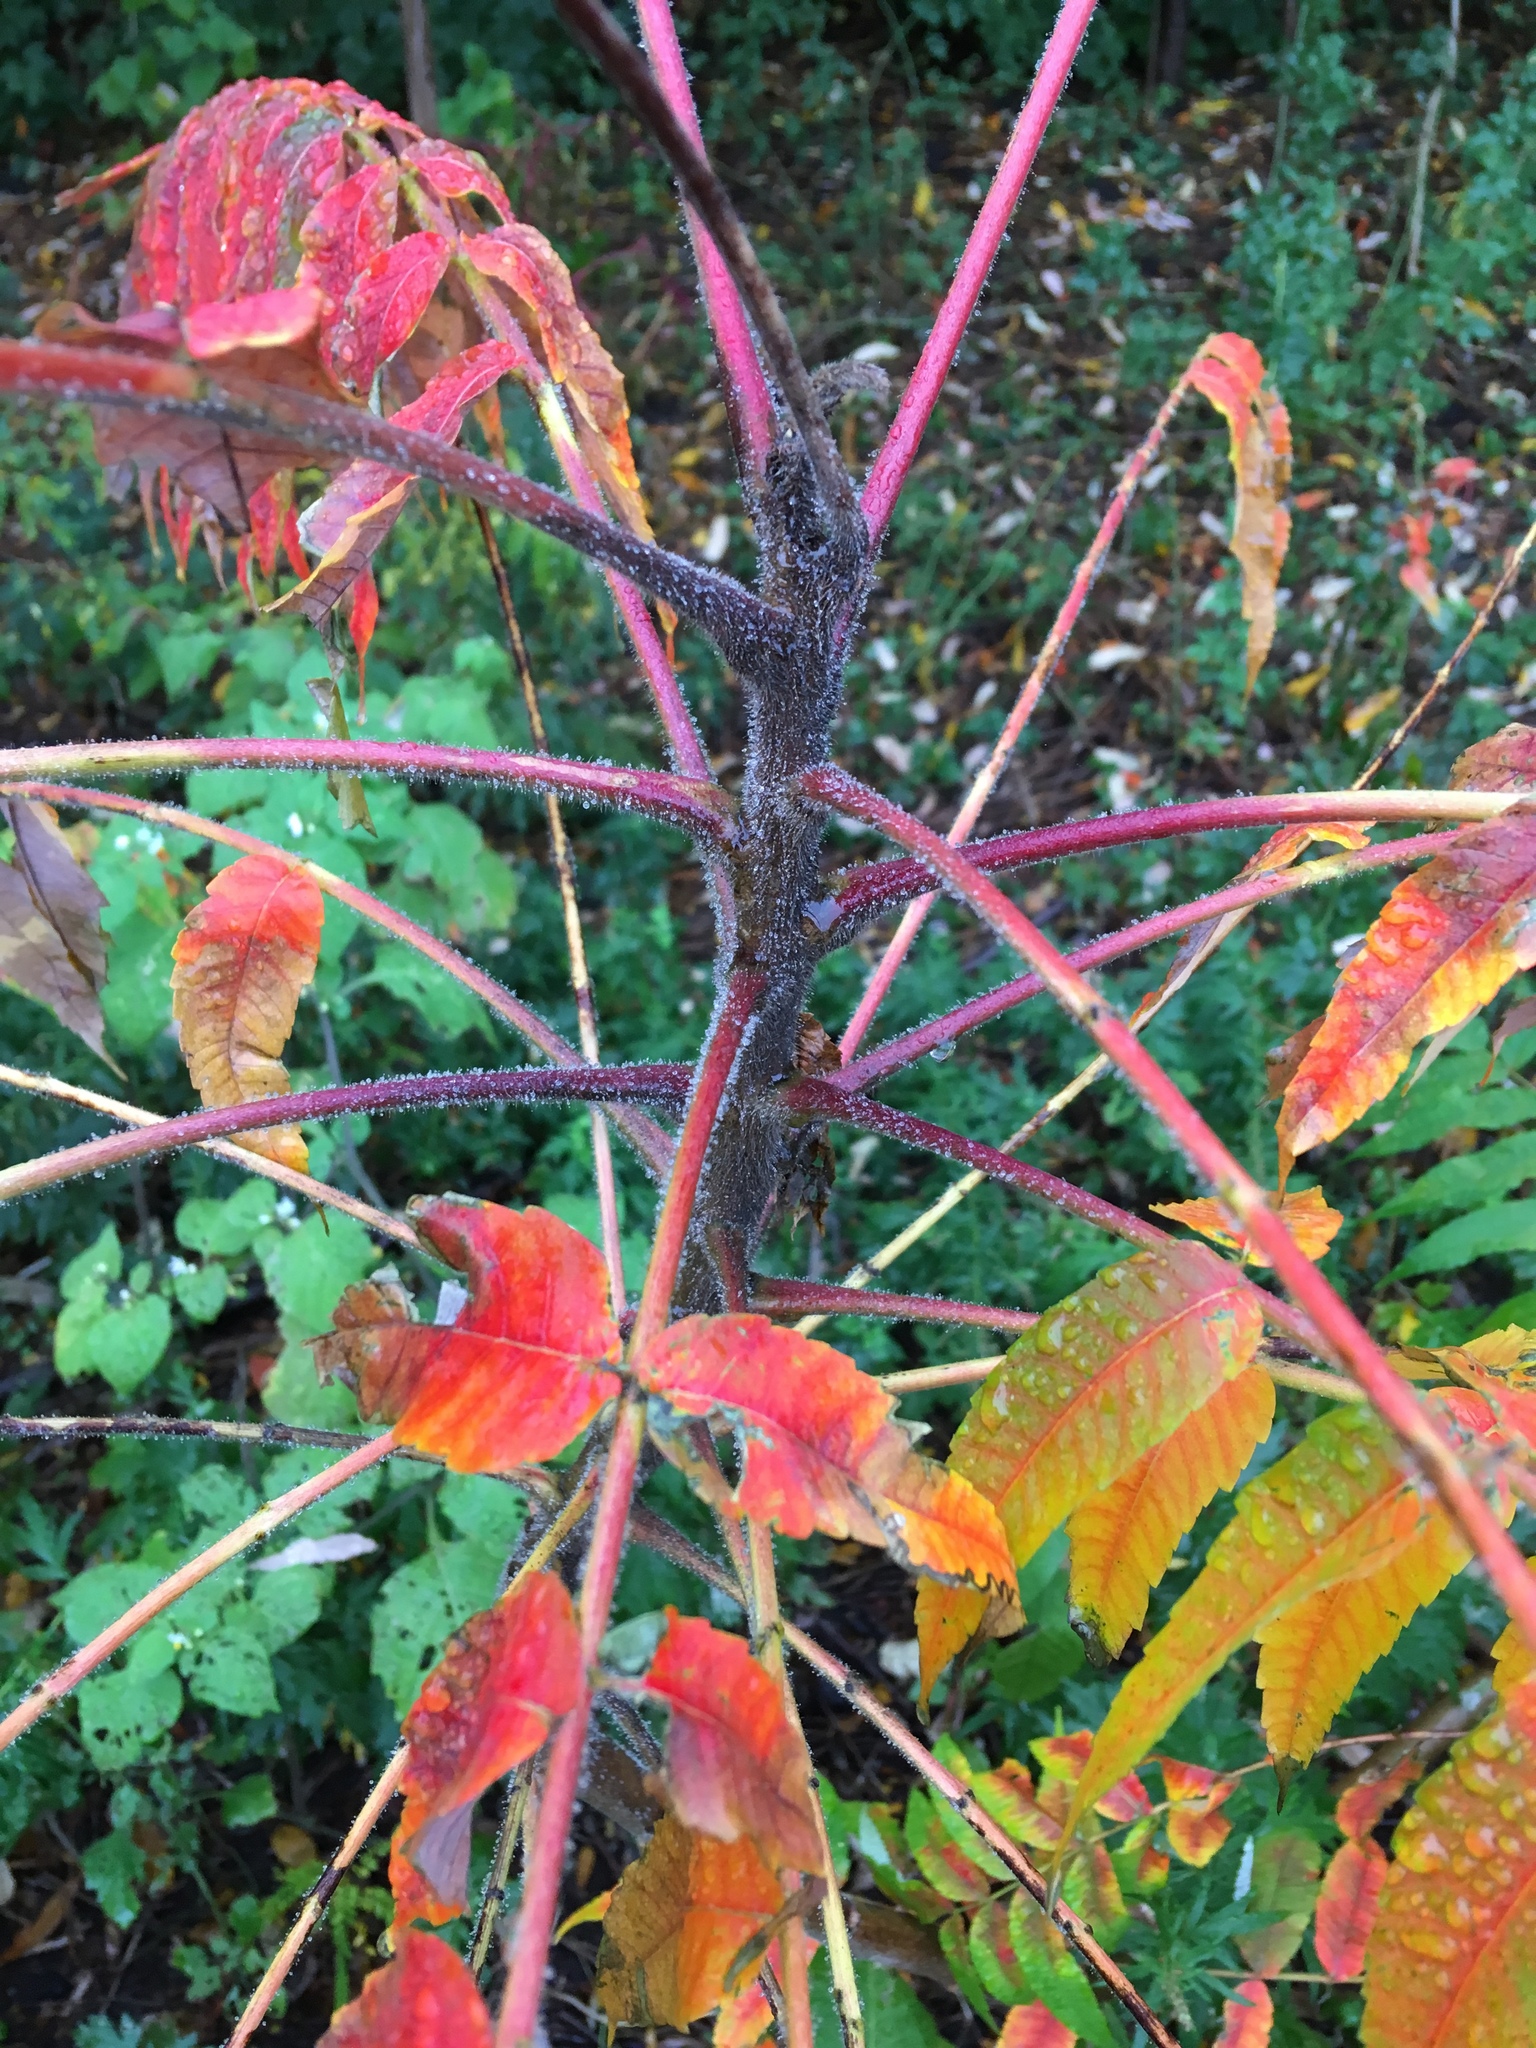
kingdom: Plantae
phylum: Tracheophyta
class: Magnoliopsida
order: Sapindales
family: Anacardiaceae
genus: Rhus
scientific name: Rhus typhina
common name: Staghorn sumac
